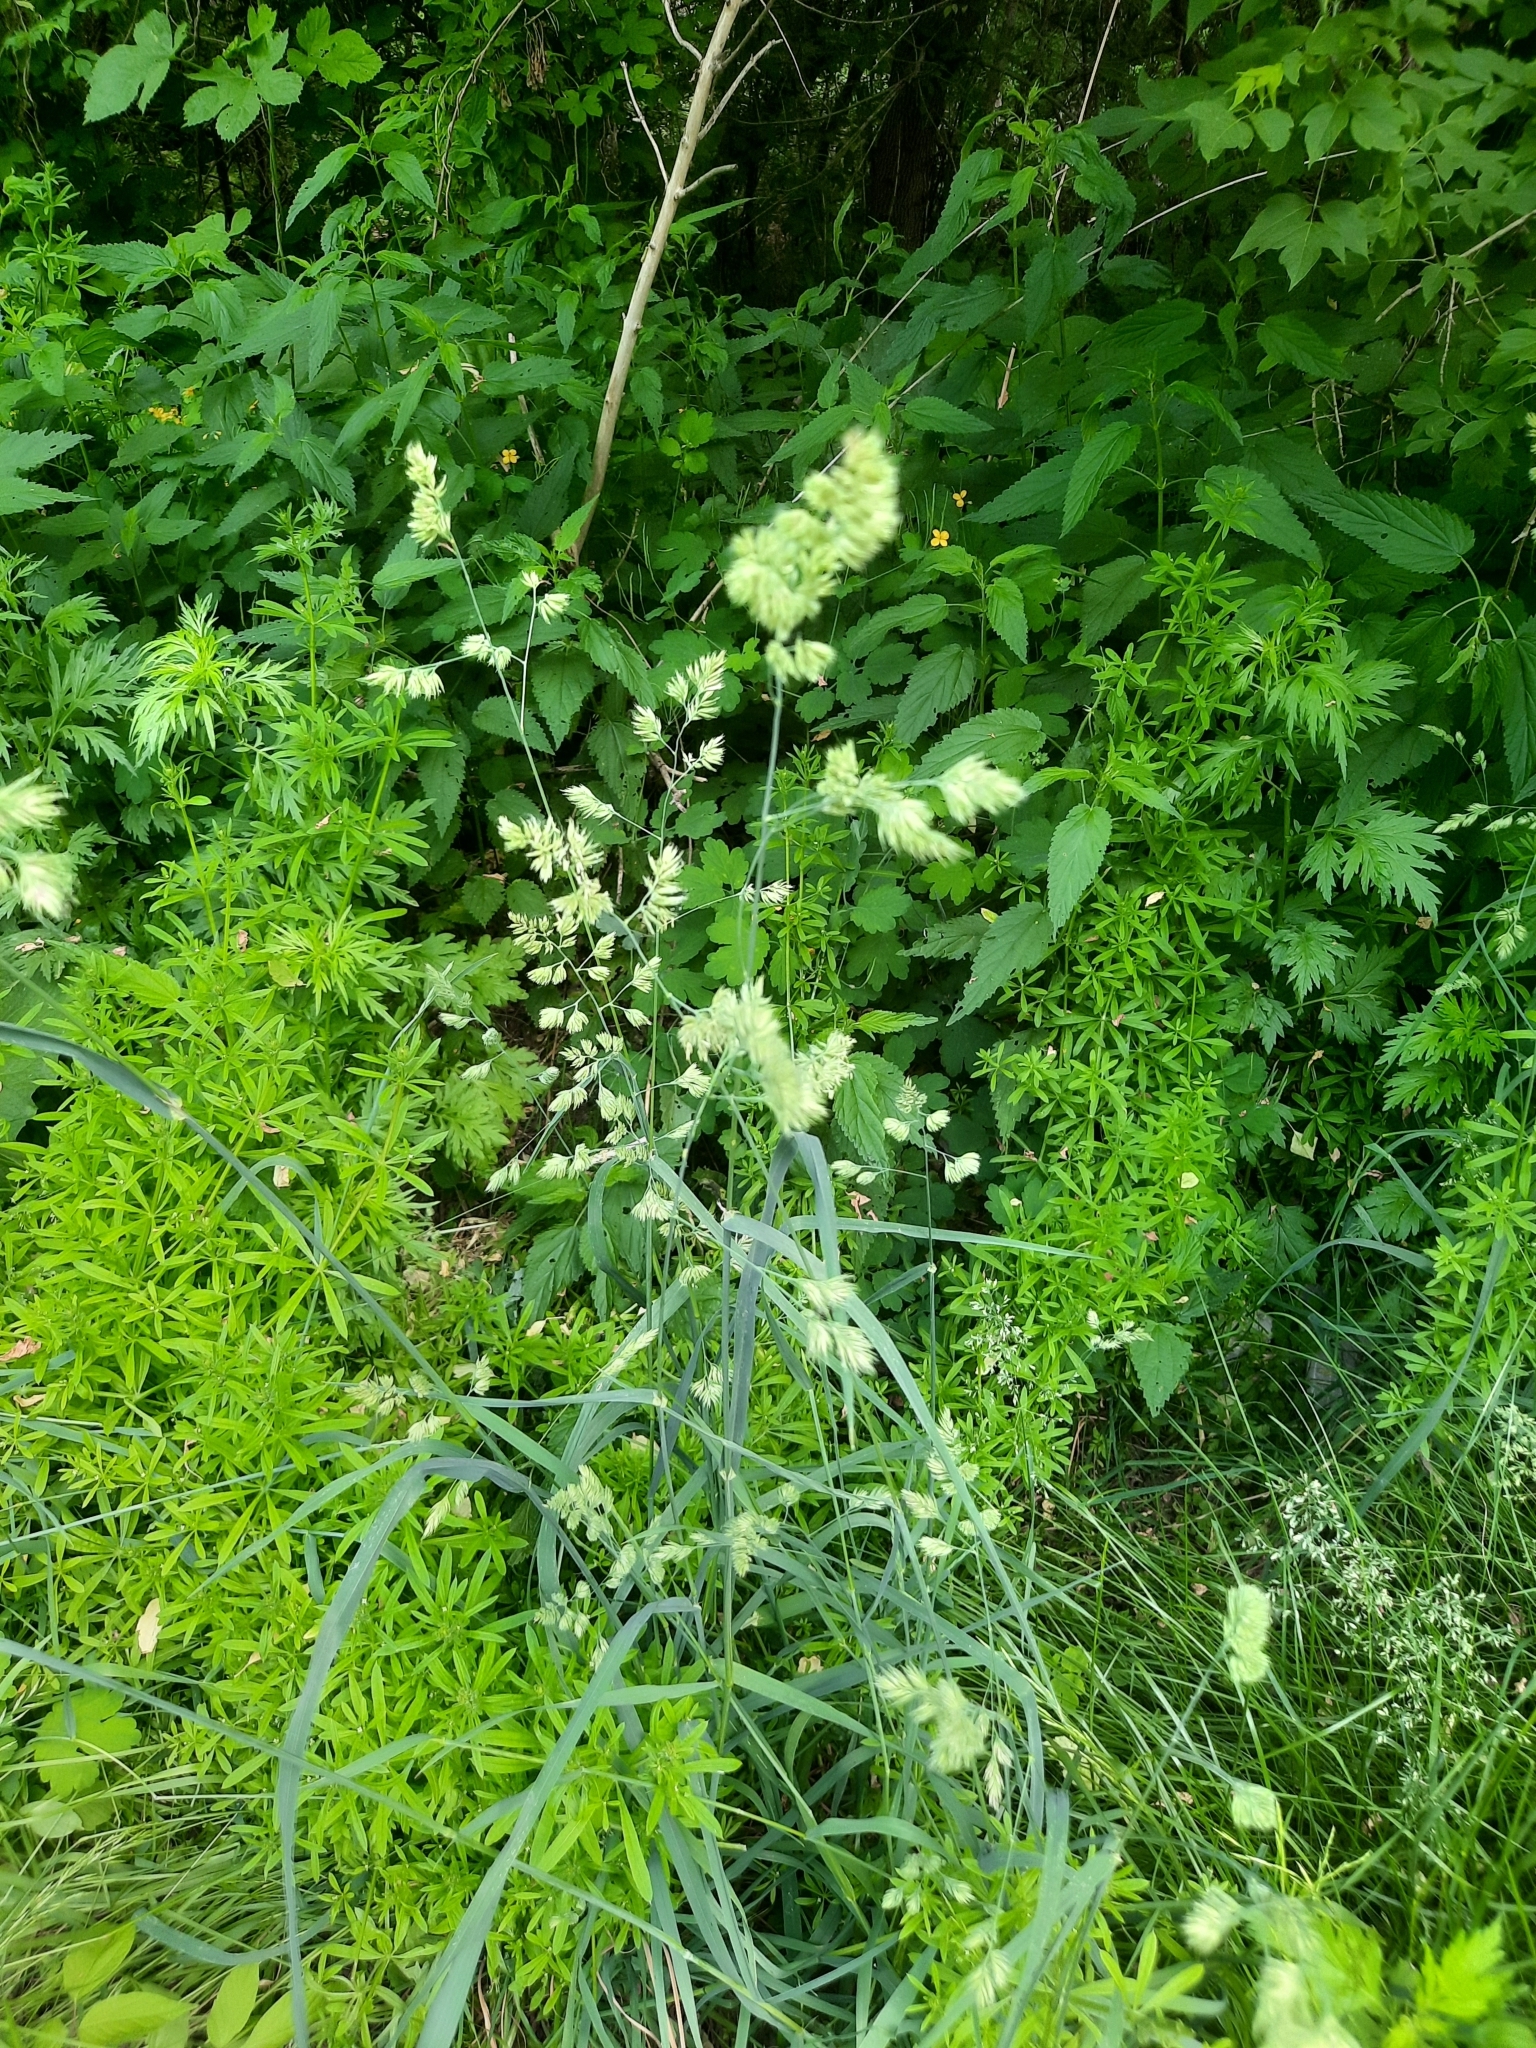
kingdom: Plantae
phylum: Tracheophyta
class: Liliopsida
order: Poales
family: Poaceae
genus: Dactylis
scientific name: Dactylis glomerata
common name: Orchardgrass
